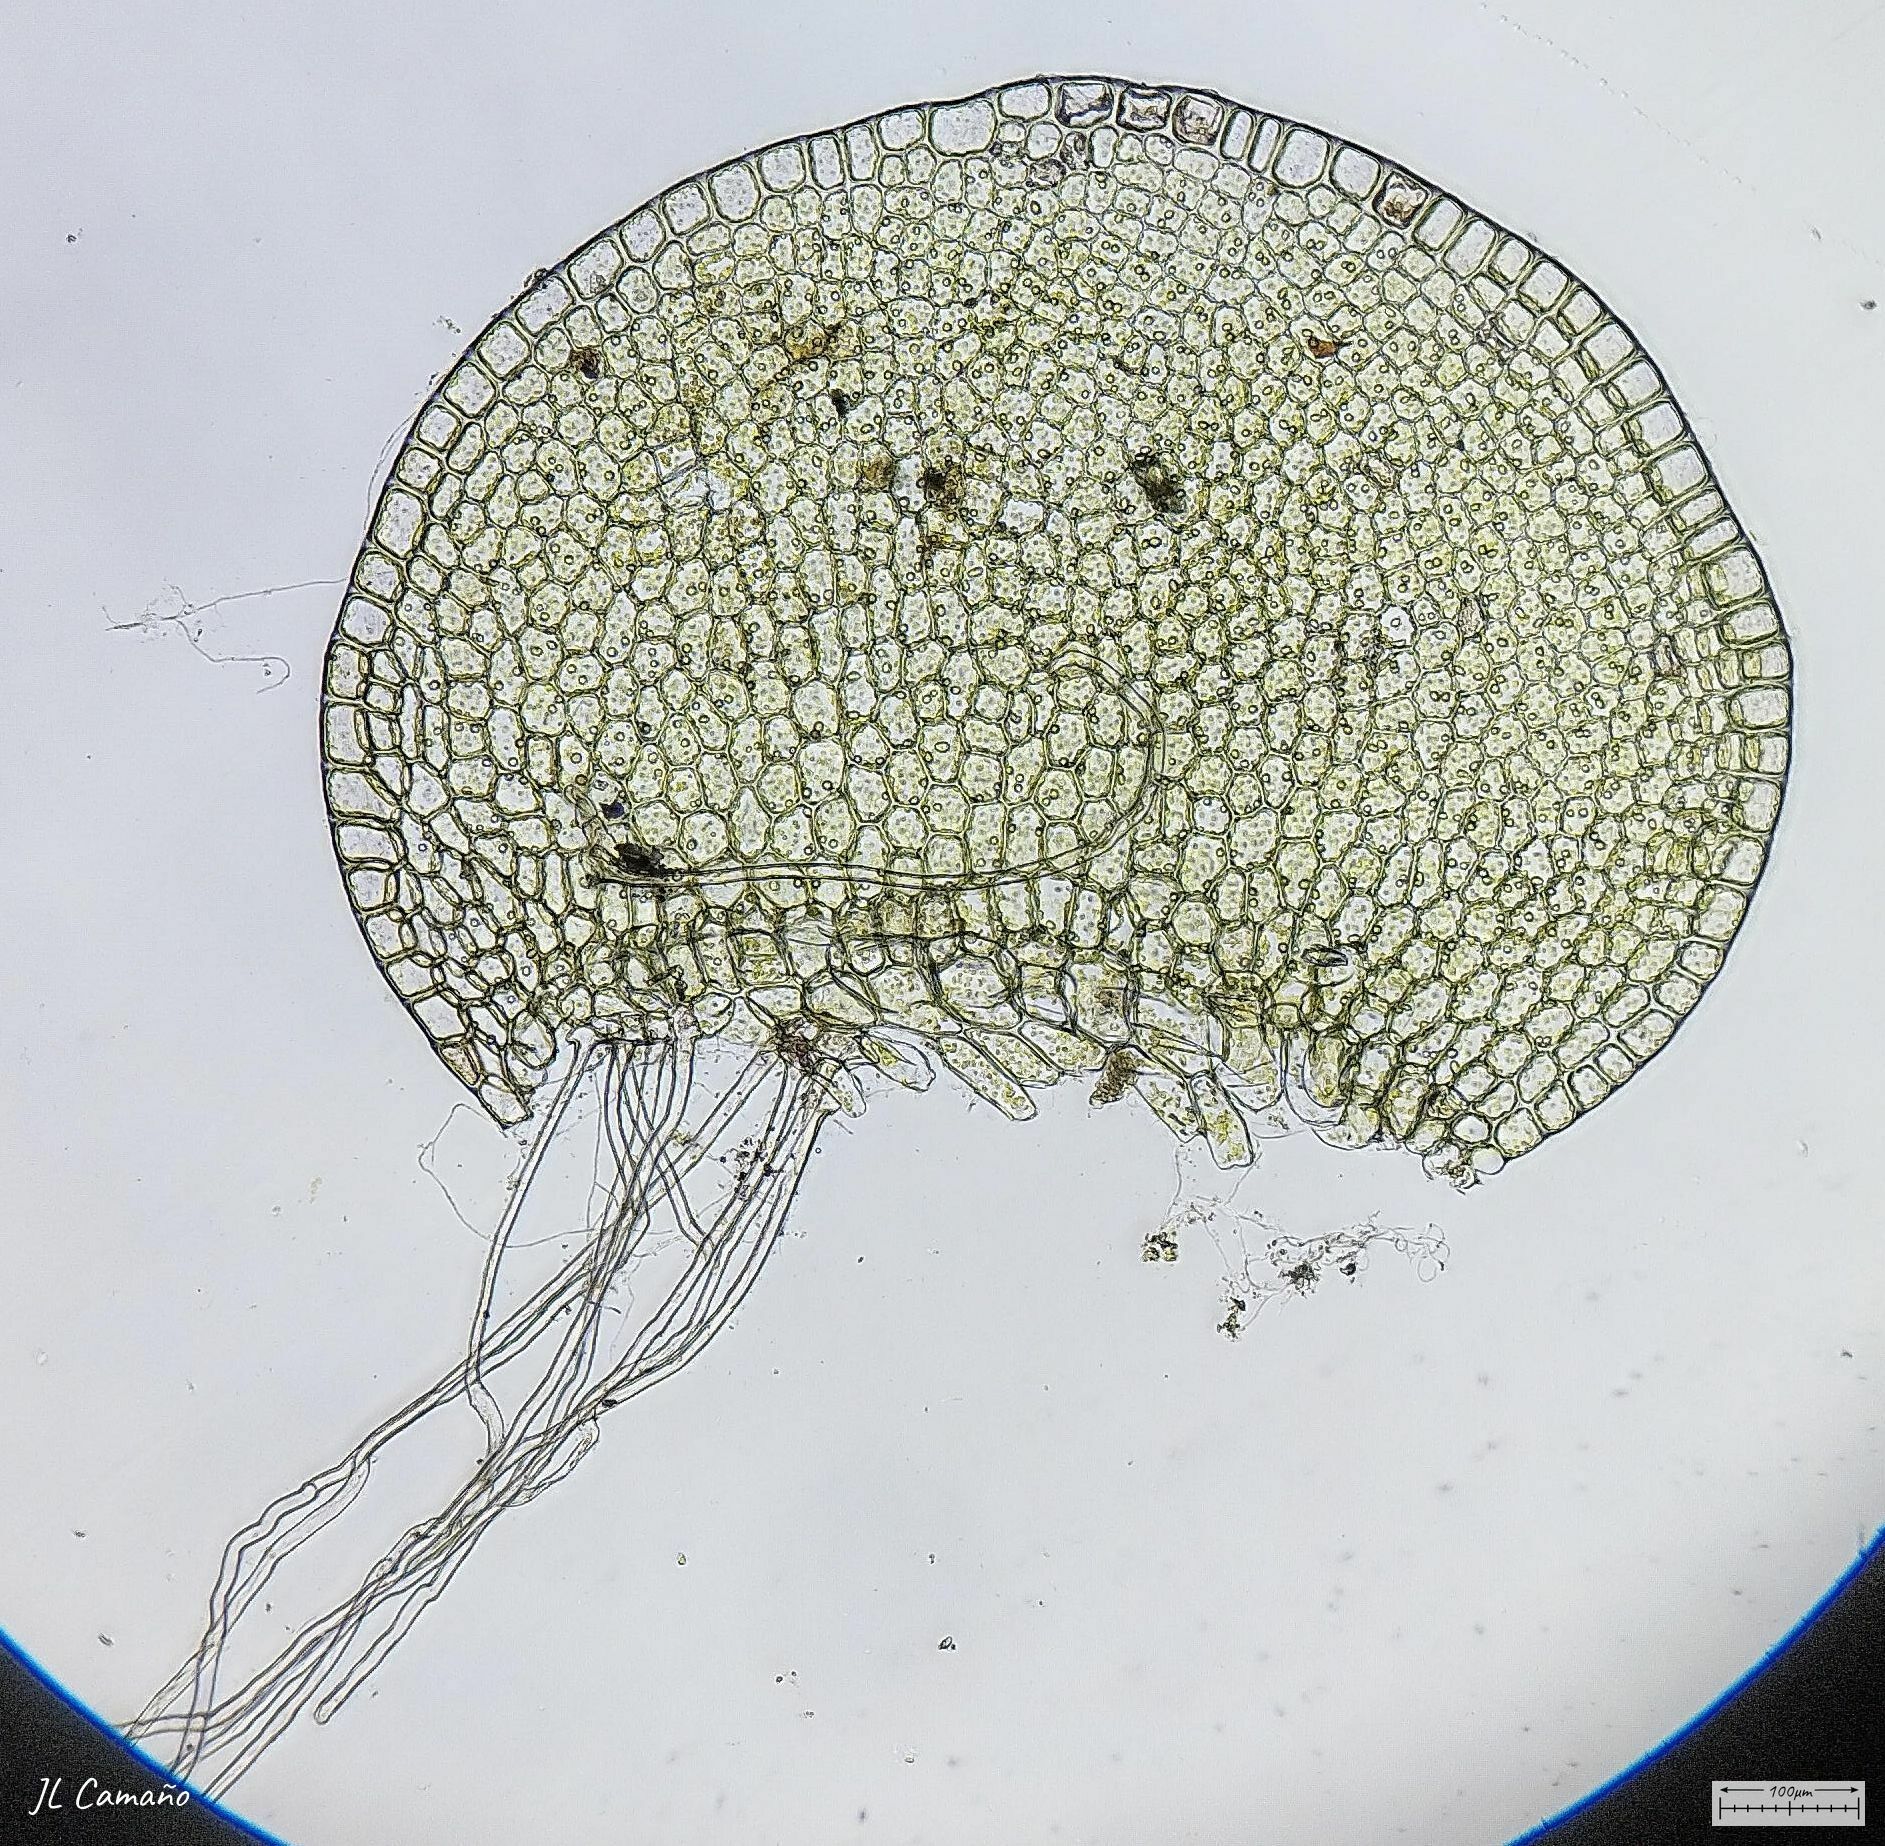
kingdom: Plantae
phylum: Marchantiophyta
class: Jungermanniopsida
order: Jungermanniales
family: Solenostomataceae
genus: Solenostoma
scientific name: Solenostoma gracillimum
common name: Crenulated flapwort
